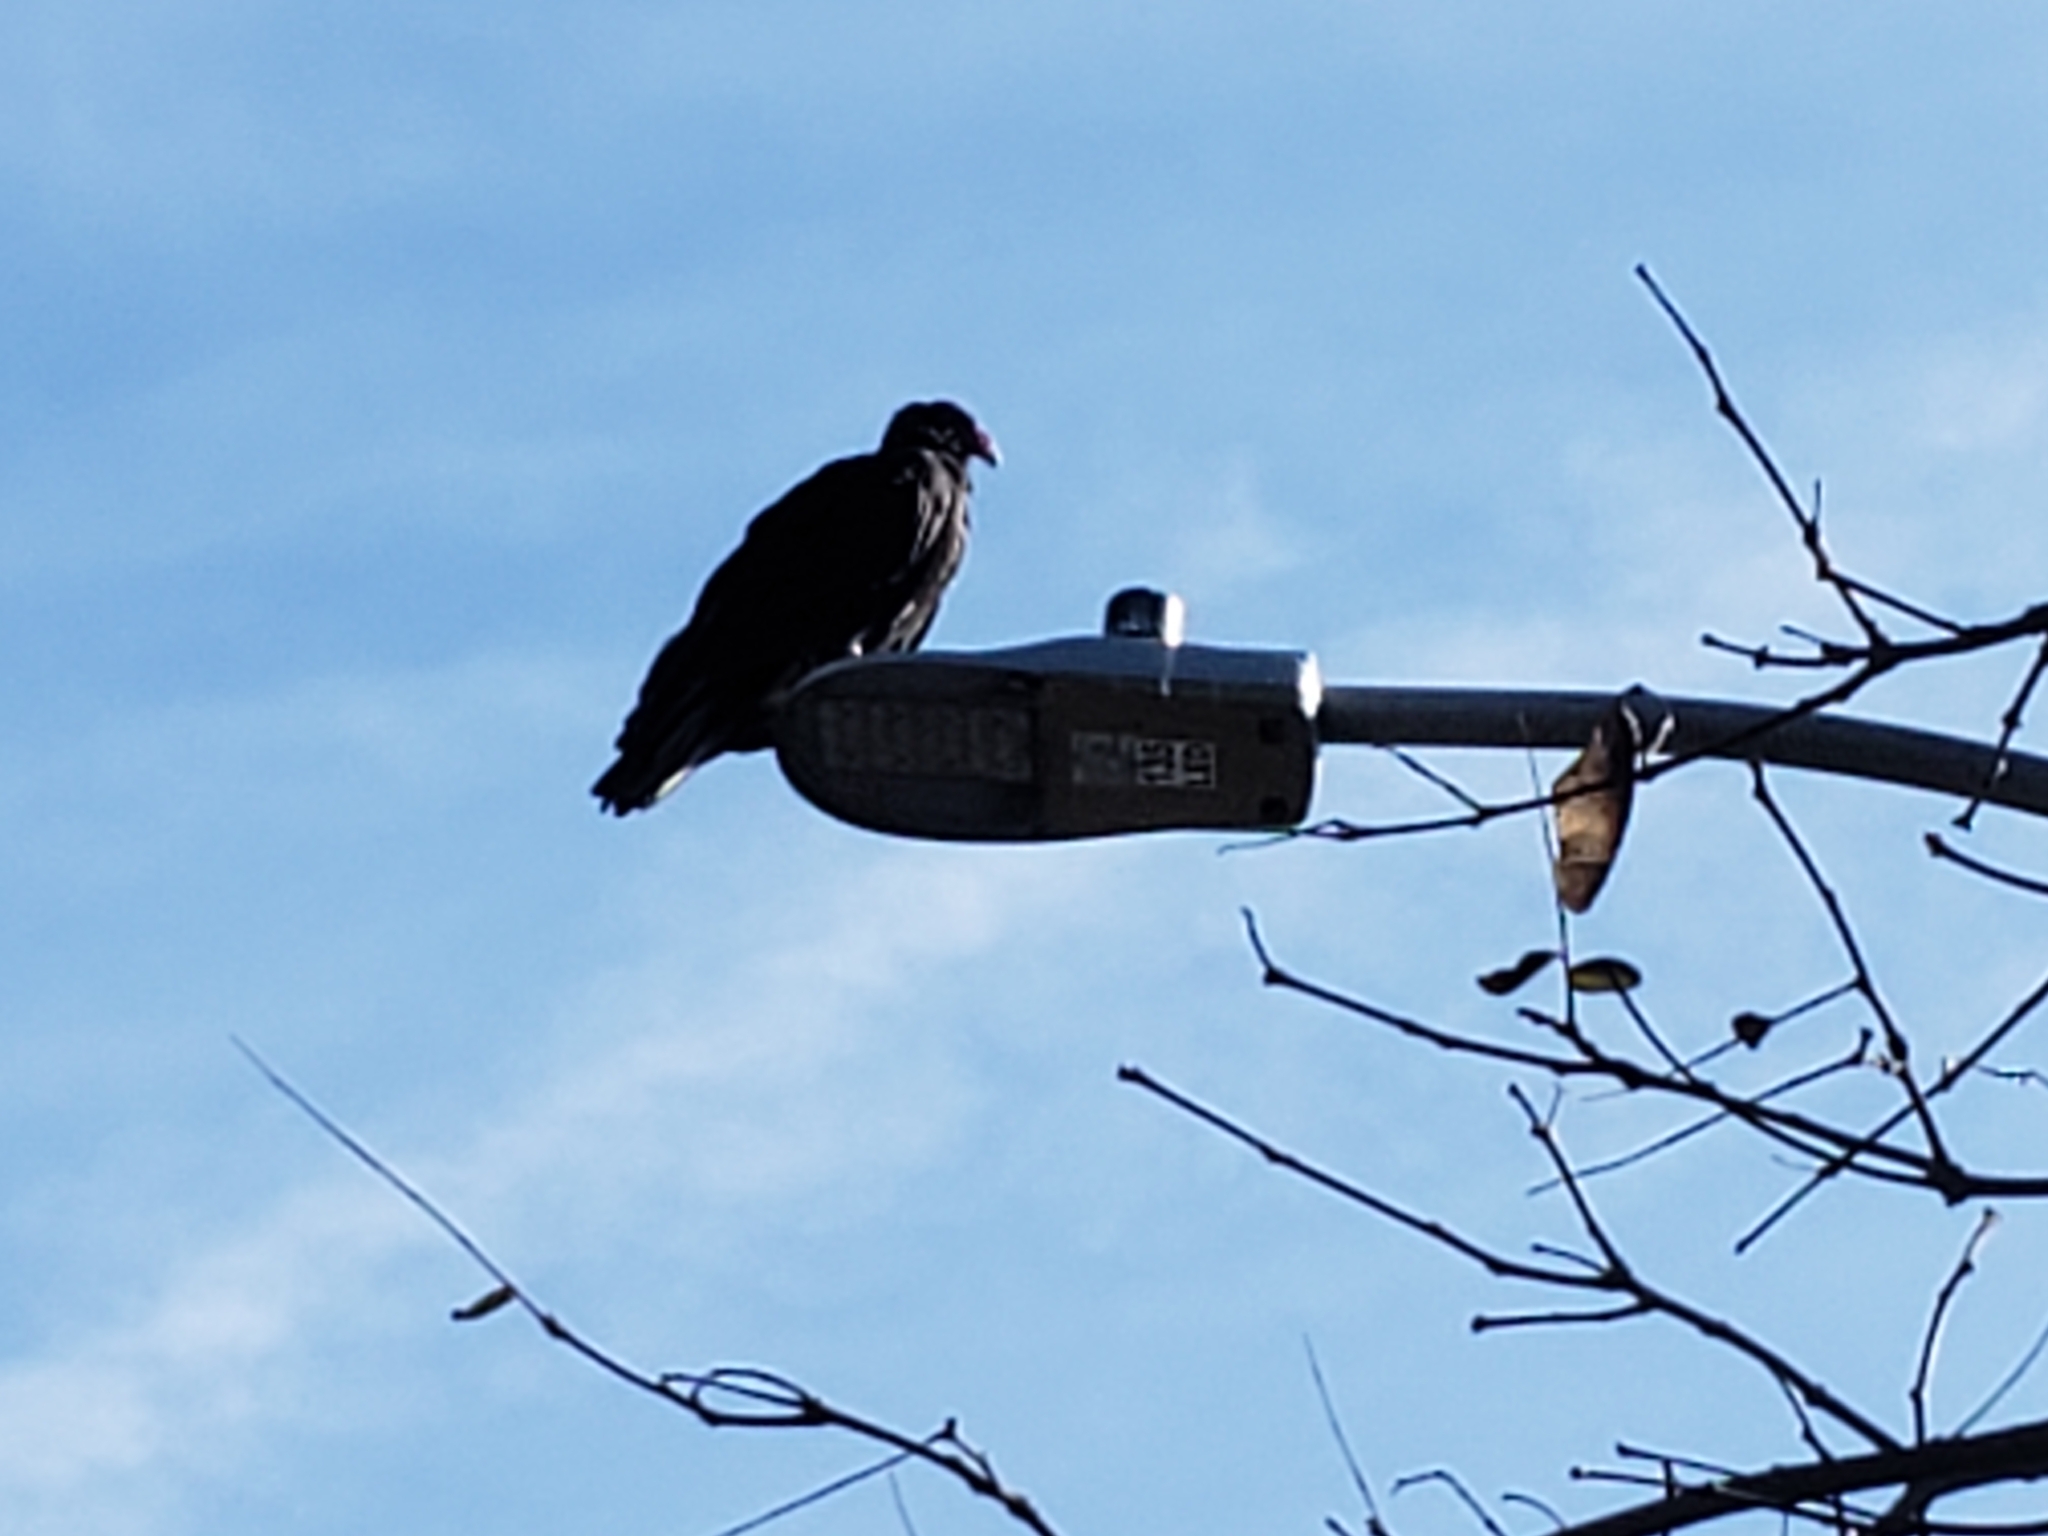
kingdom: Animalia
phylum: Chordata
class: Aves
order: Accipitriformes
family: Cathartidae
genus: Cathartes
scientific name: Cathartes aura
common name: Turkey vulture
